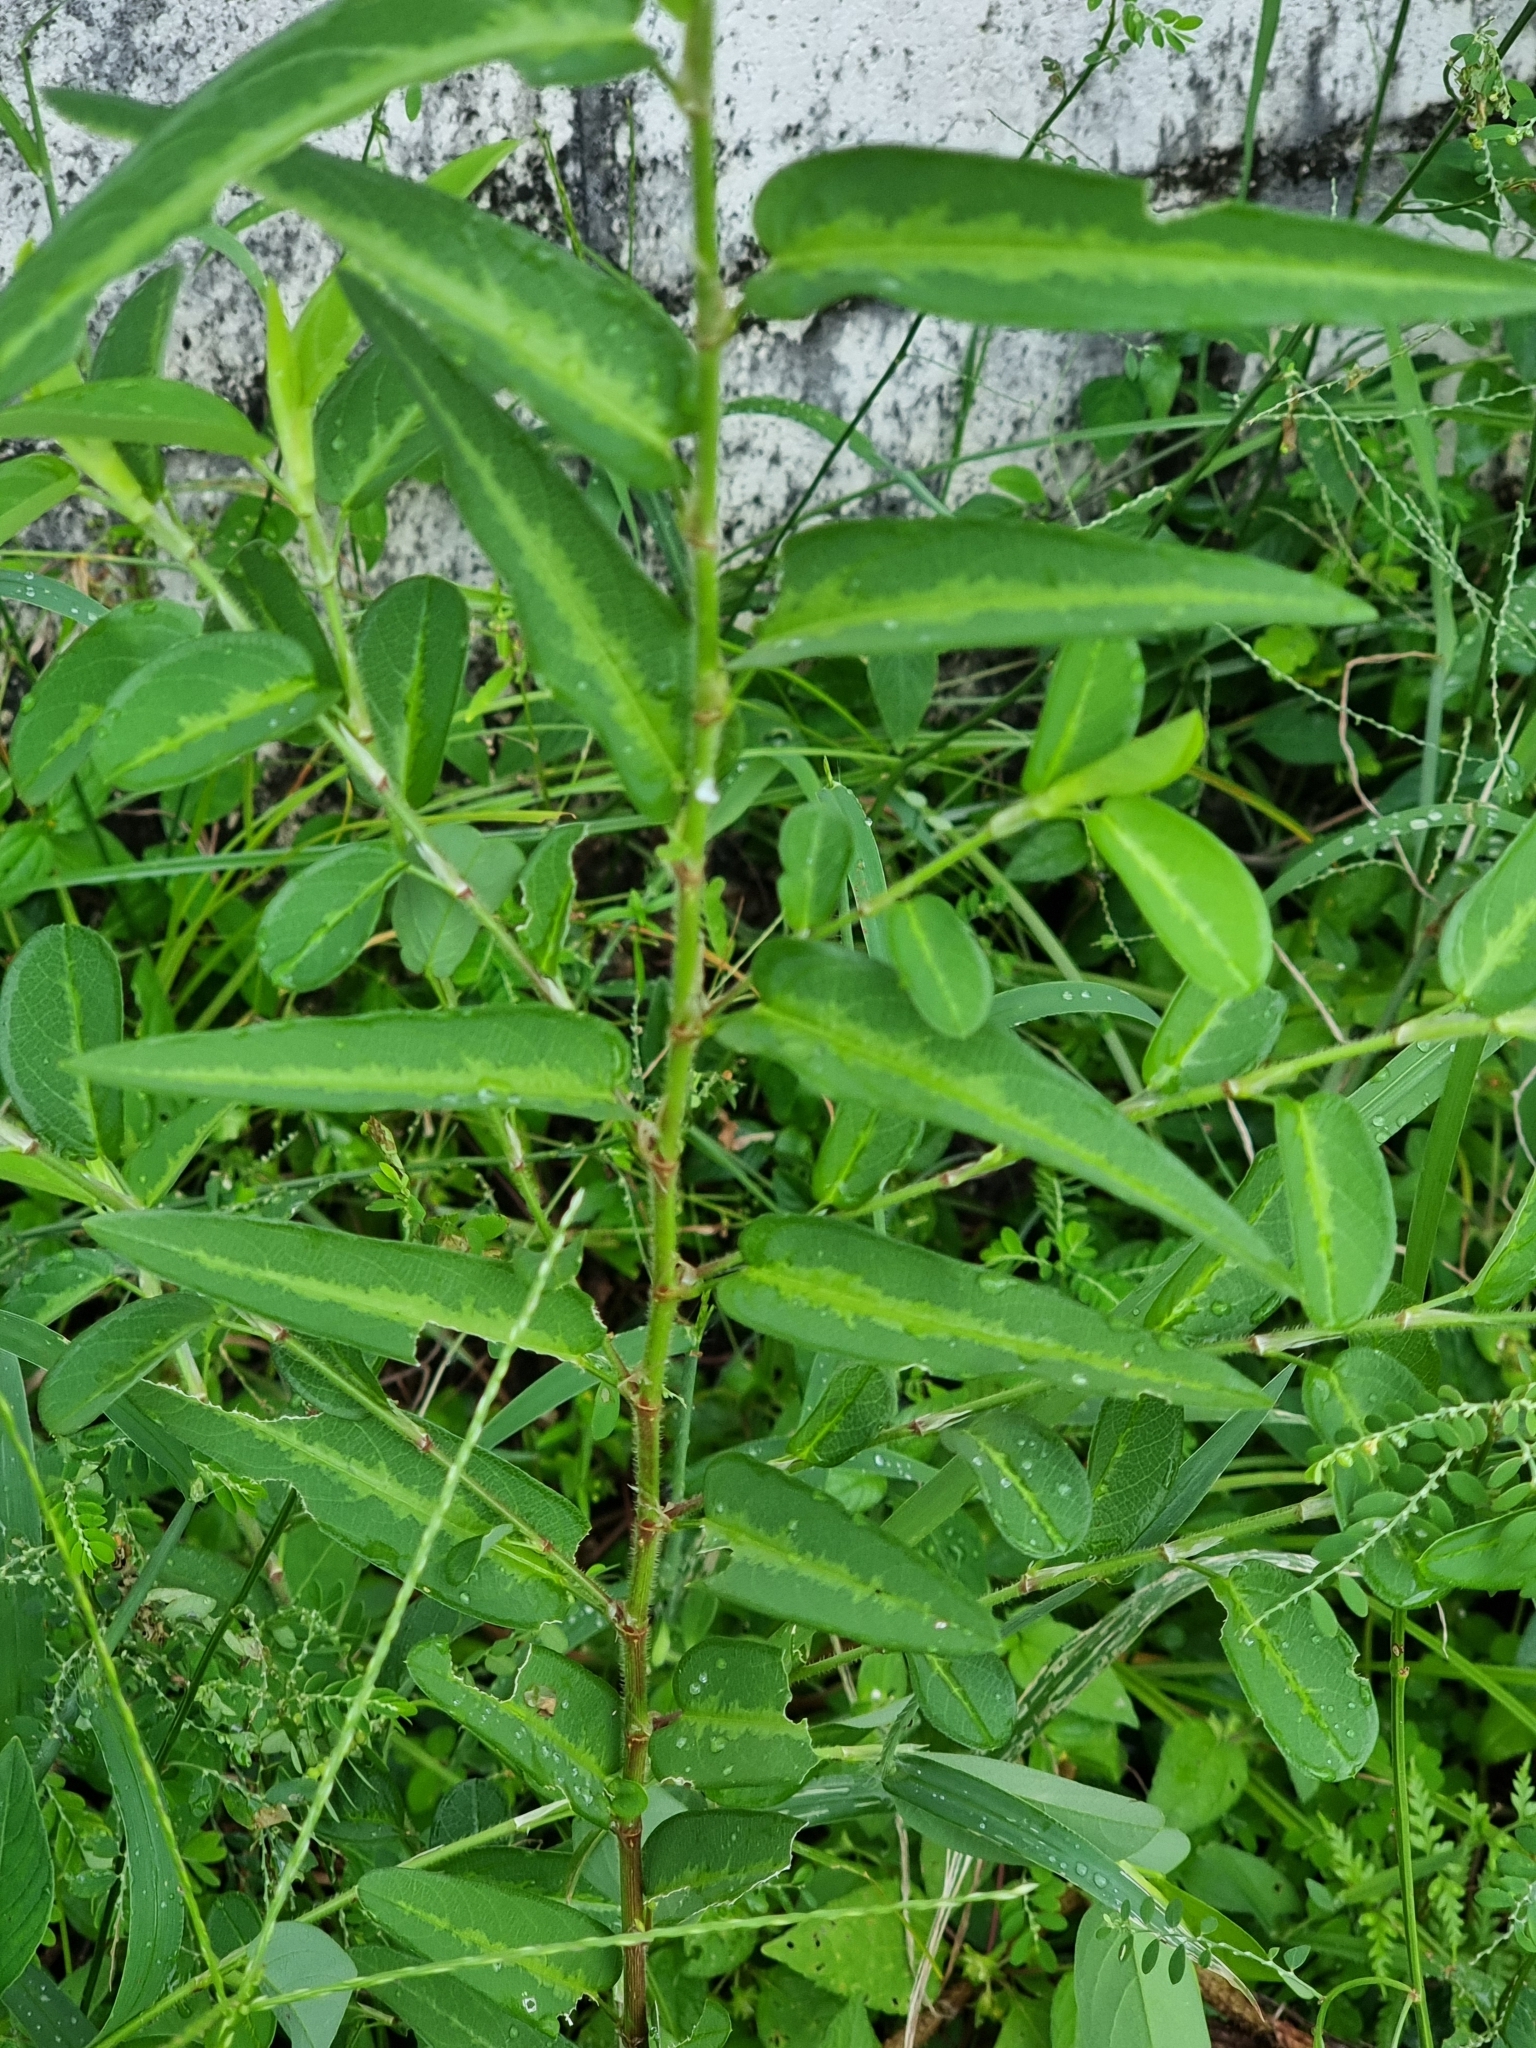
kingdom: Plantae
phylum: Tracheophyta
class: Magnoliopsida
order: Fabales
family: Fabaceae
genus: Alysicarpus
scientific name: Alysicarpus vaginalis
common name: White moneywort
